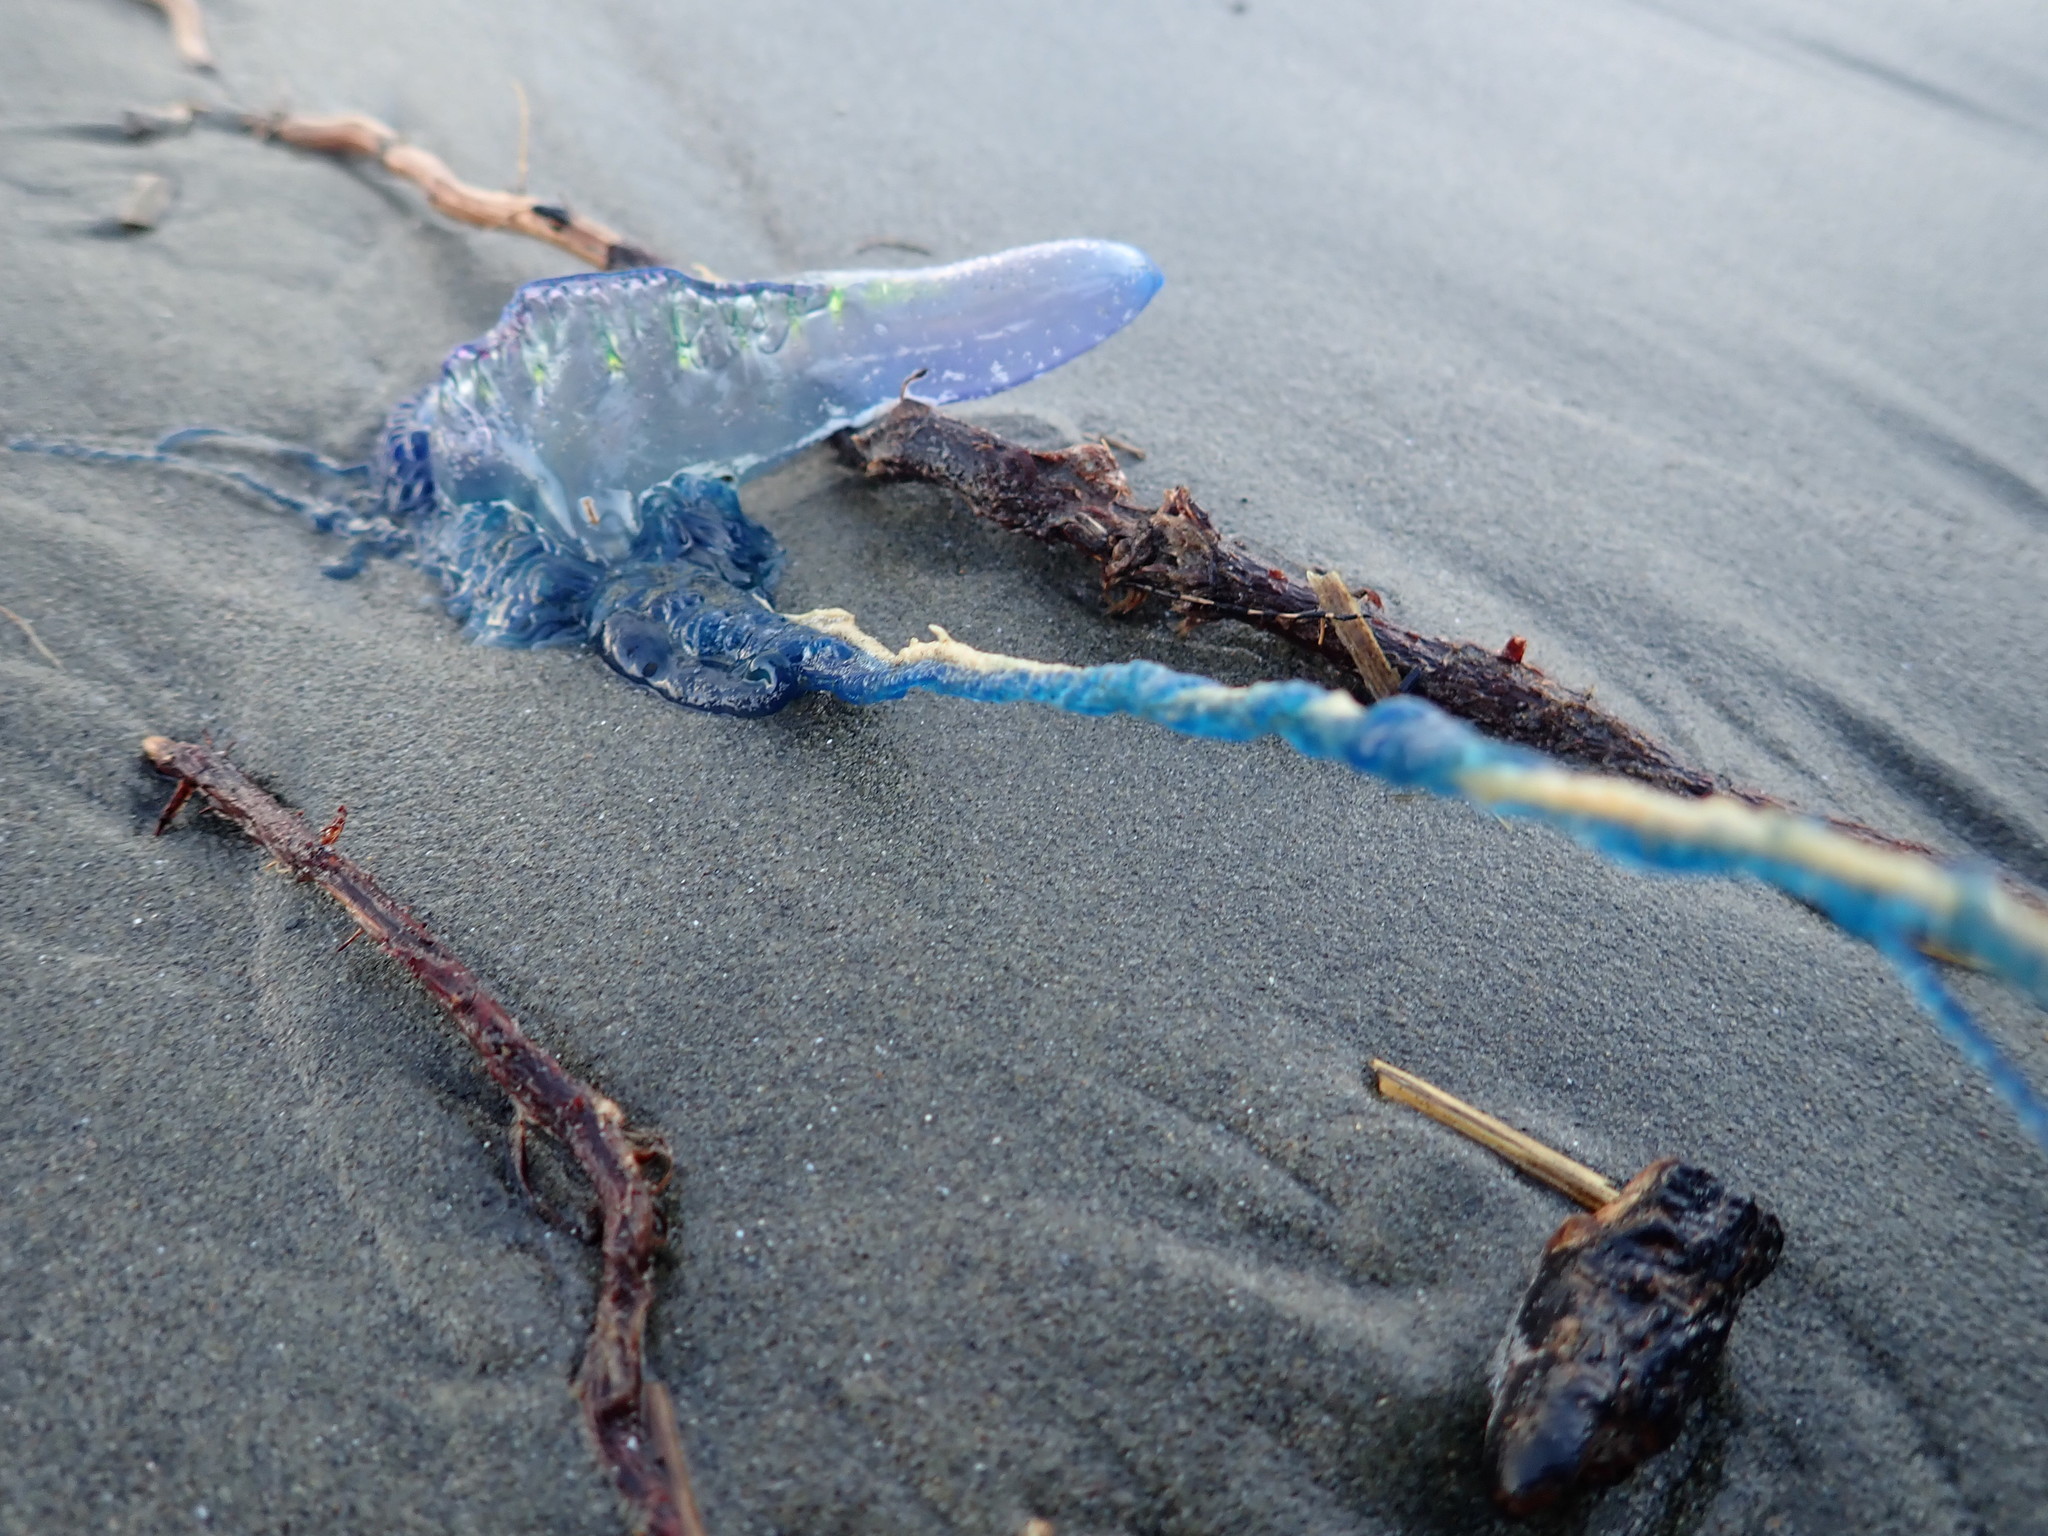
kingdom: Animalia
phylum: Cnidaria
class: Hydrozoa
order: Siphonophorae
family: Physaliidae
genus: Physalia
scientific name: Physalia physalis
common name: Portuguese man-of-war
